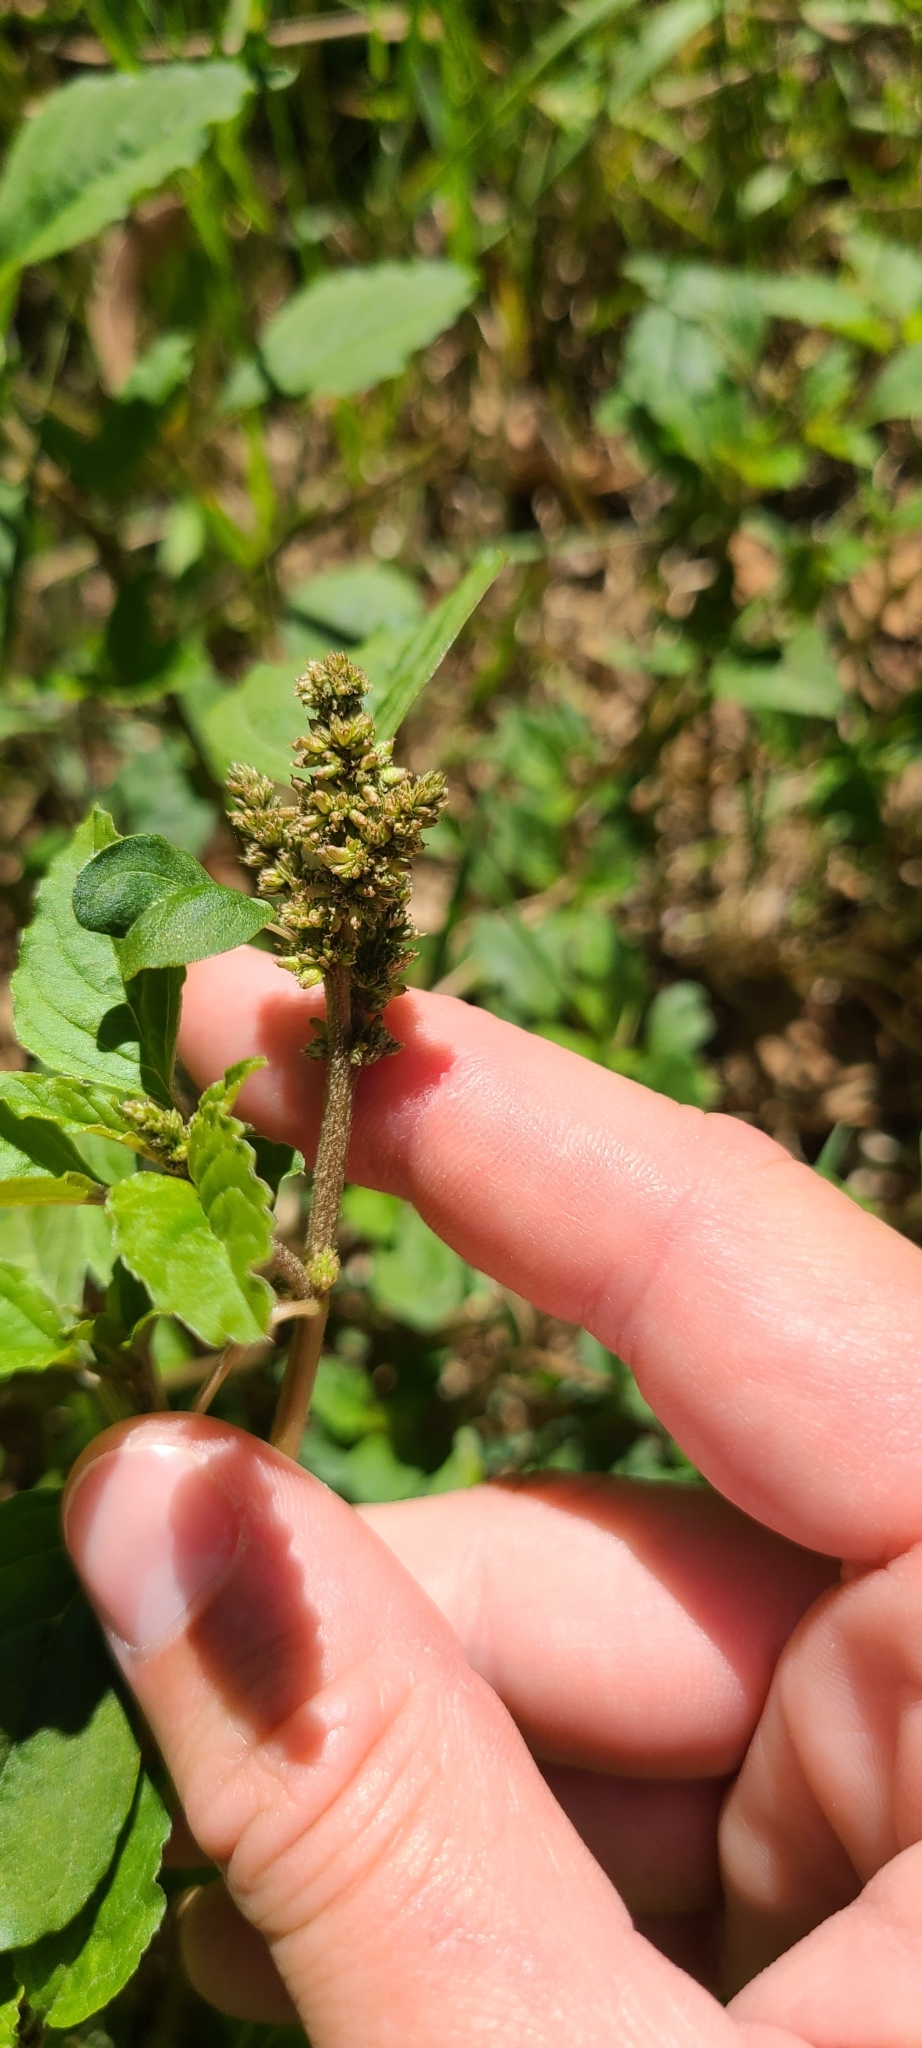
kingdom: Plantae
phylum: Tracheophyta
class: Magnoliopsida
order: Caryophyllales
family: Amaranthaceae
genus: Amaranthus
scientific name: Amaranthus deflexus
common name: Perennial pigweed
